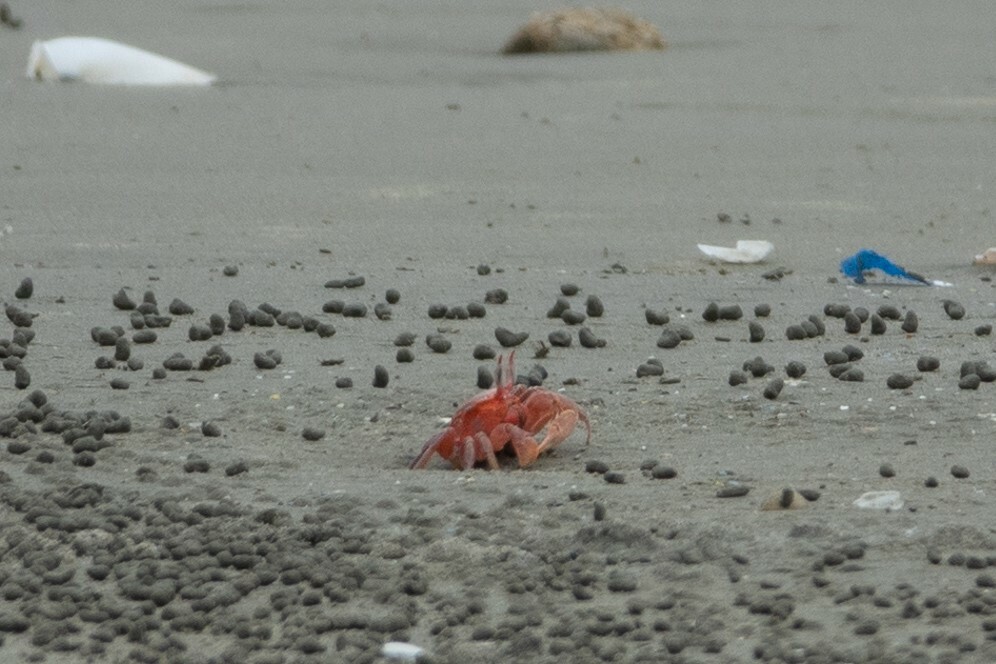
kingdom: Animalia
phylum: Arthropoda
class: Malacostraca
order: Decapoda
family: Ocypodidae
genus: Ocypode
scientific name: Ocypode gaudichaudii
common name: Pacific ghost crab
